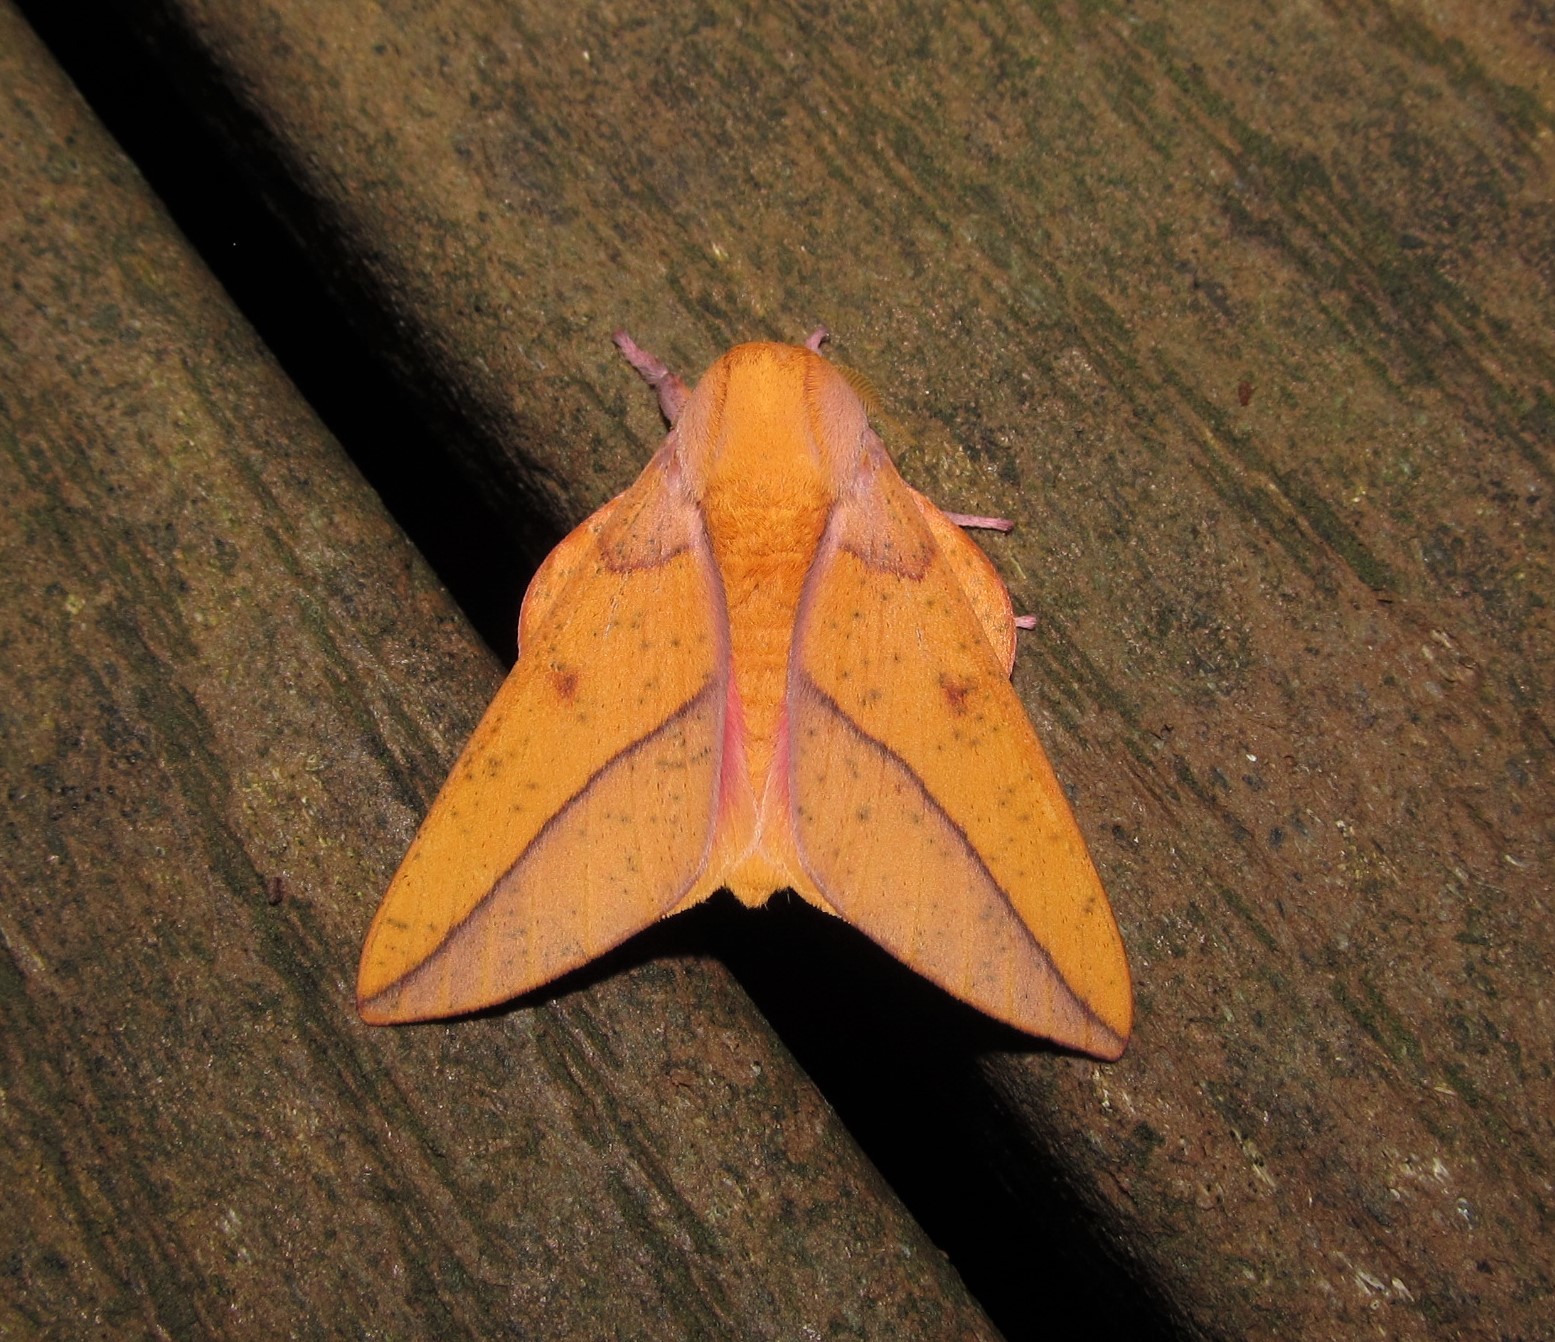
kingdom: Animalia
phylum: Arthropoda
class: Insecta
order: Lepidoptera
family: Saturniidae
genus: Syssphinx
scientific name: Syssphinx bisecta
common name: Bisected honey locust moth
